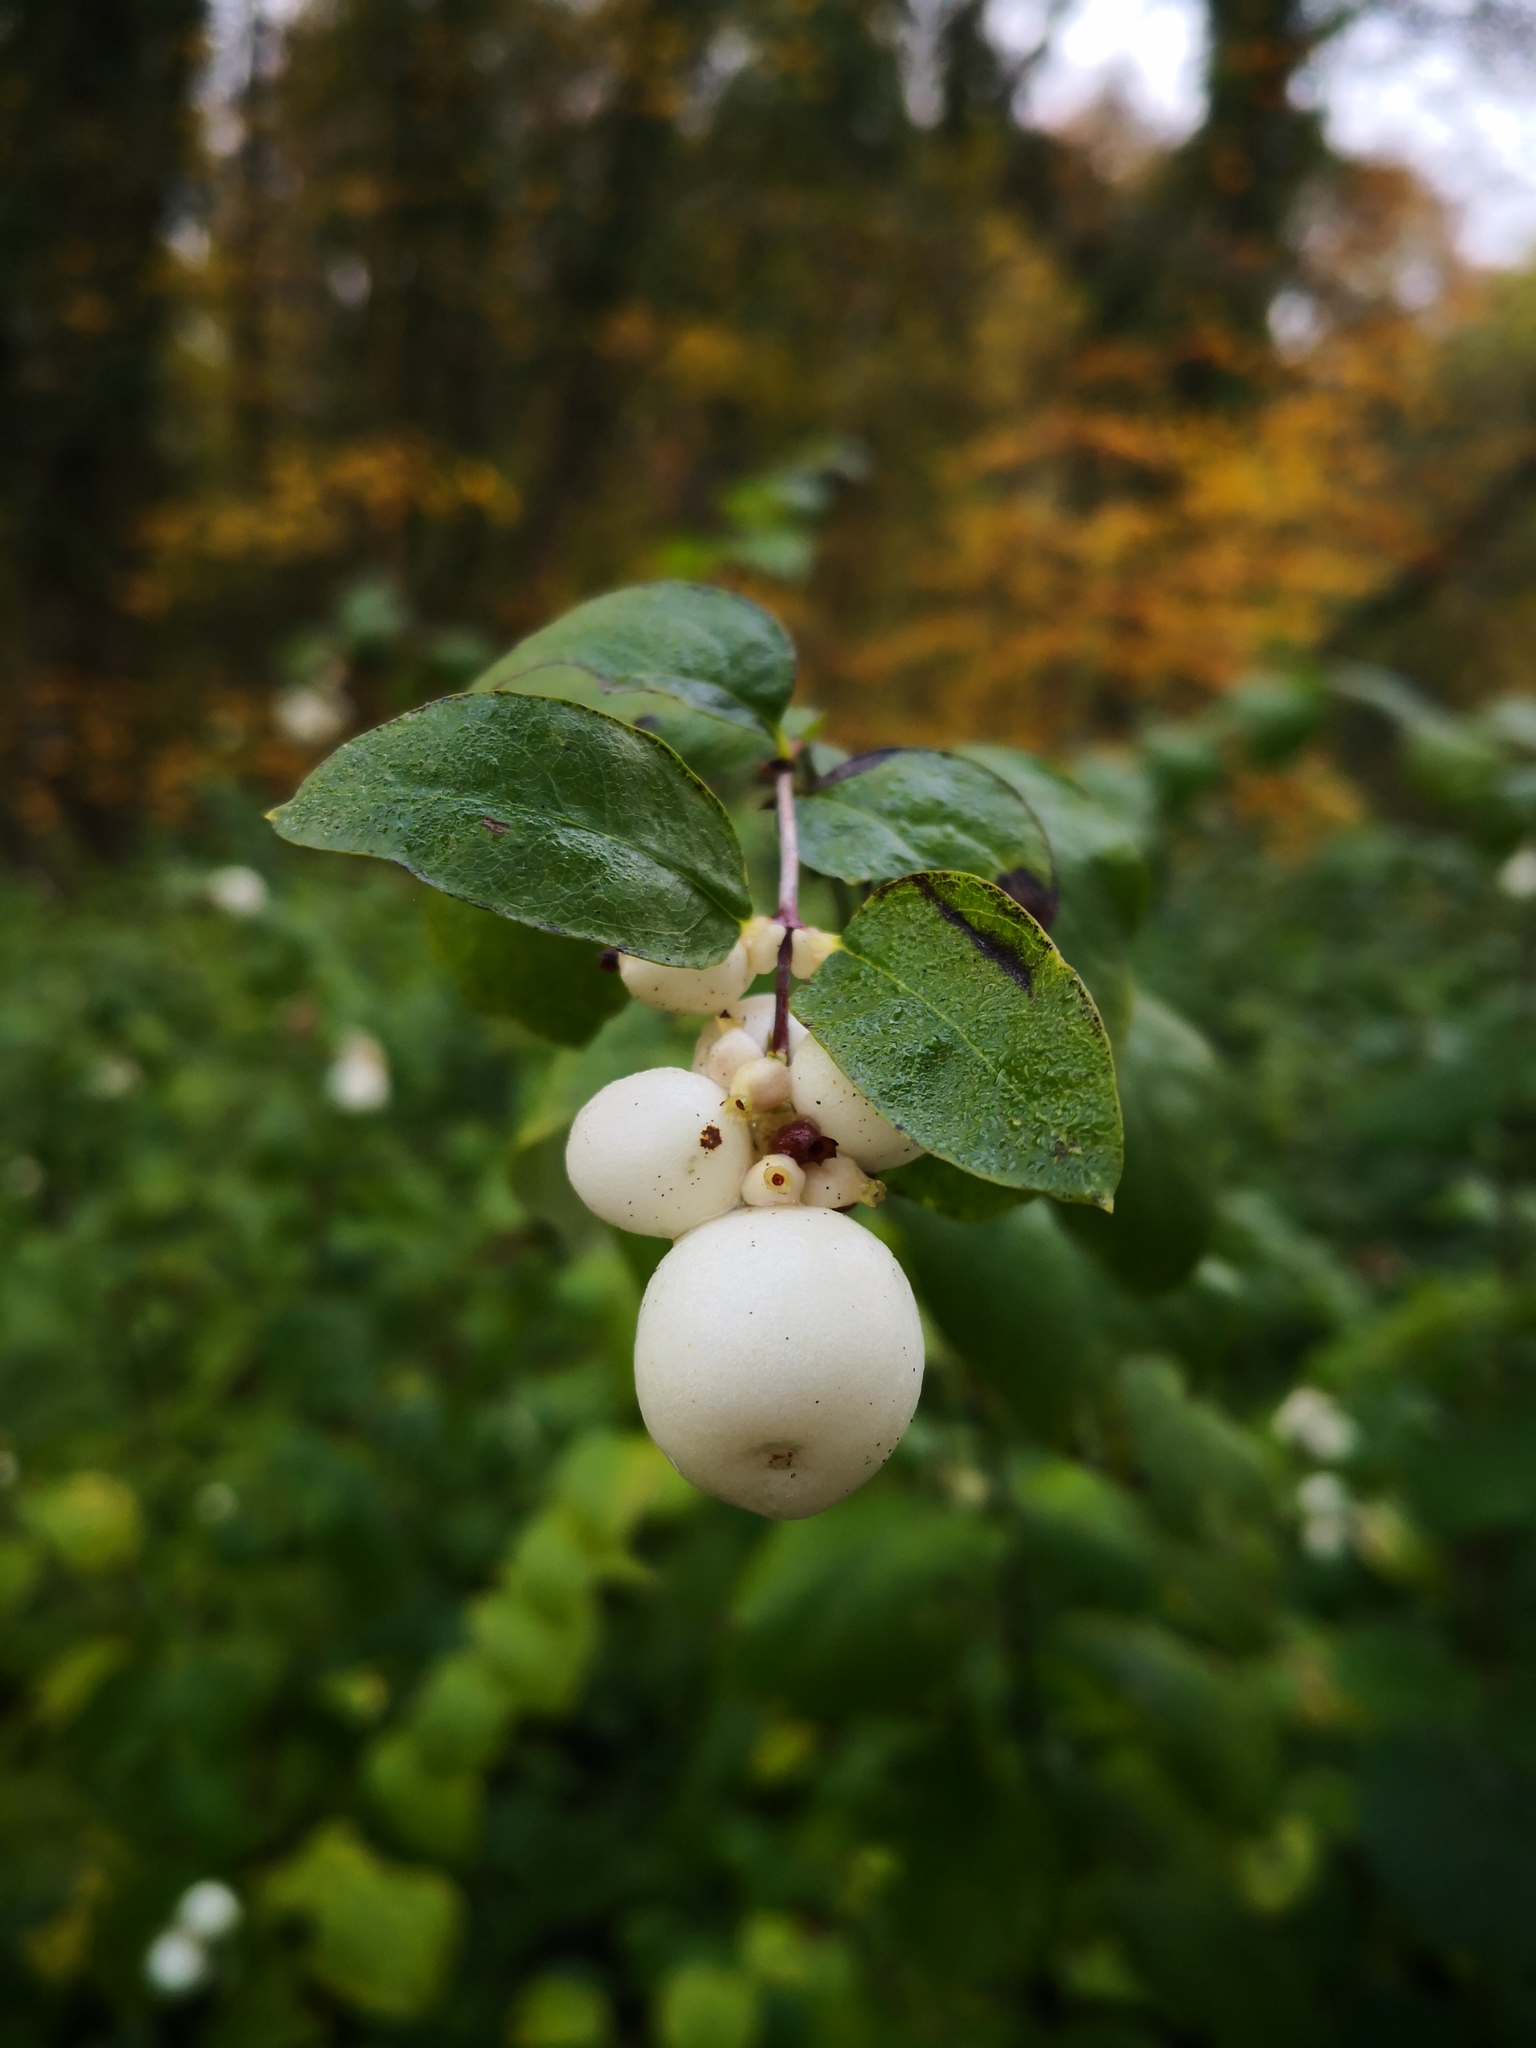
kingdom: Plantae
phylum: Tracheophyta
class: Magnoliopsida
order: Dipsacales
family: Caprifoliaceae
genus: Symphoricarpos
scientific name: Symphoricarpos albus
